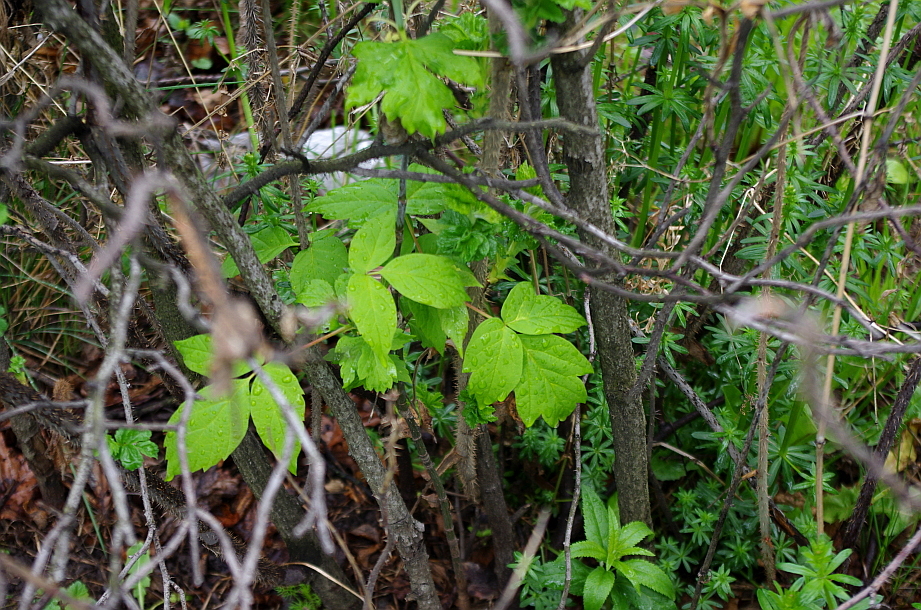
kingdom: Plantae
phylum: Tracheophyta
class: Magnoliopsida
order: Sapindales
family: Sapindaceae
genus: Acer
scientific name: Acer negundo
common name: Ashleaf maple
